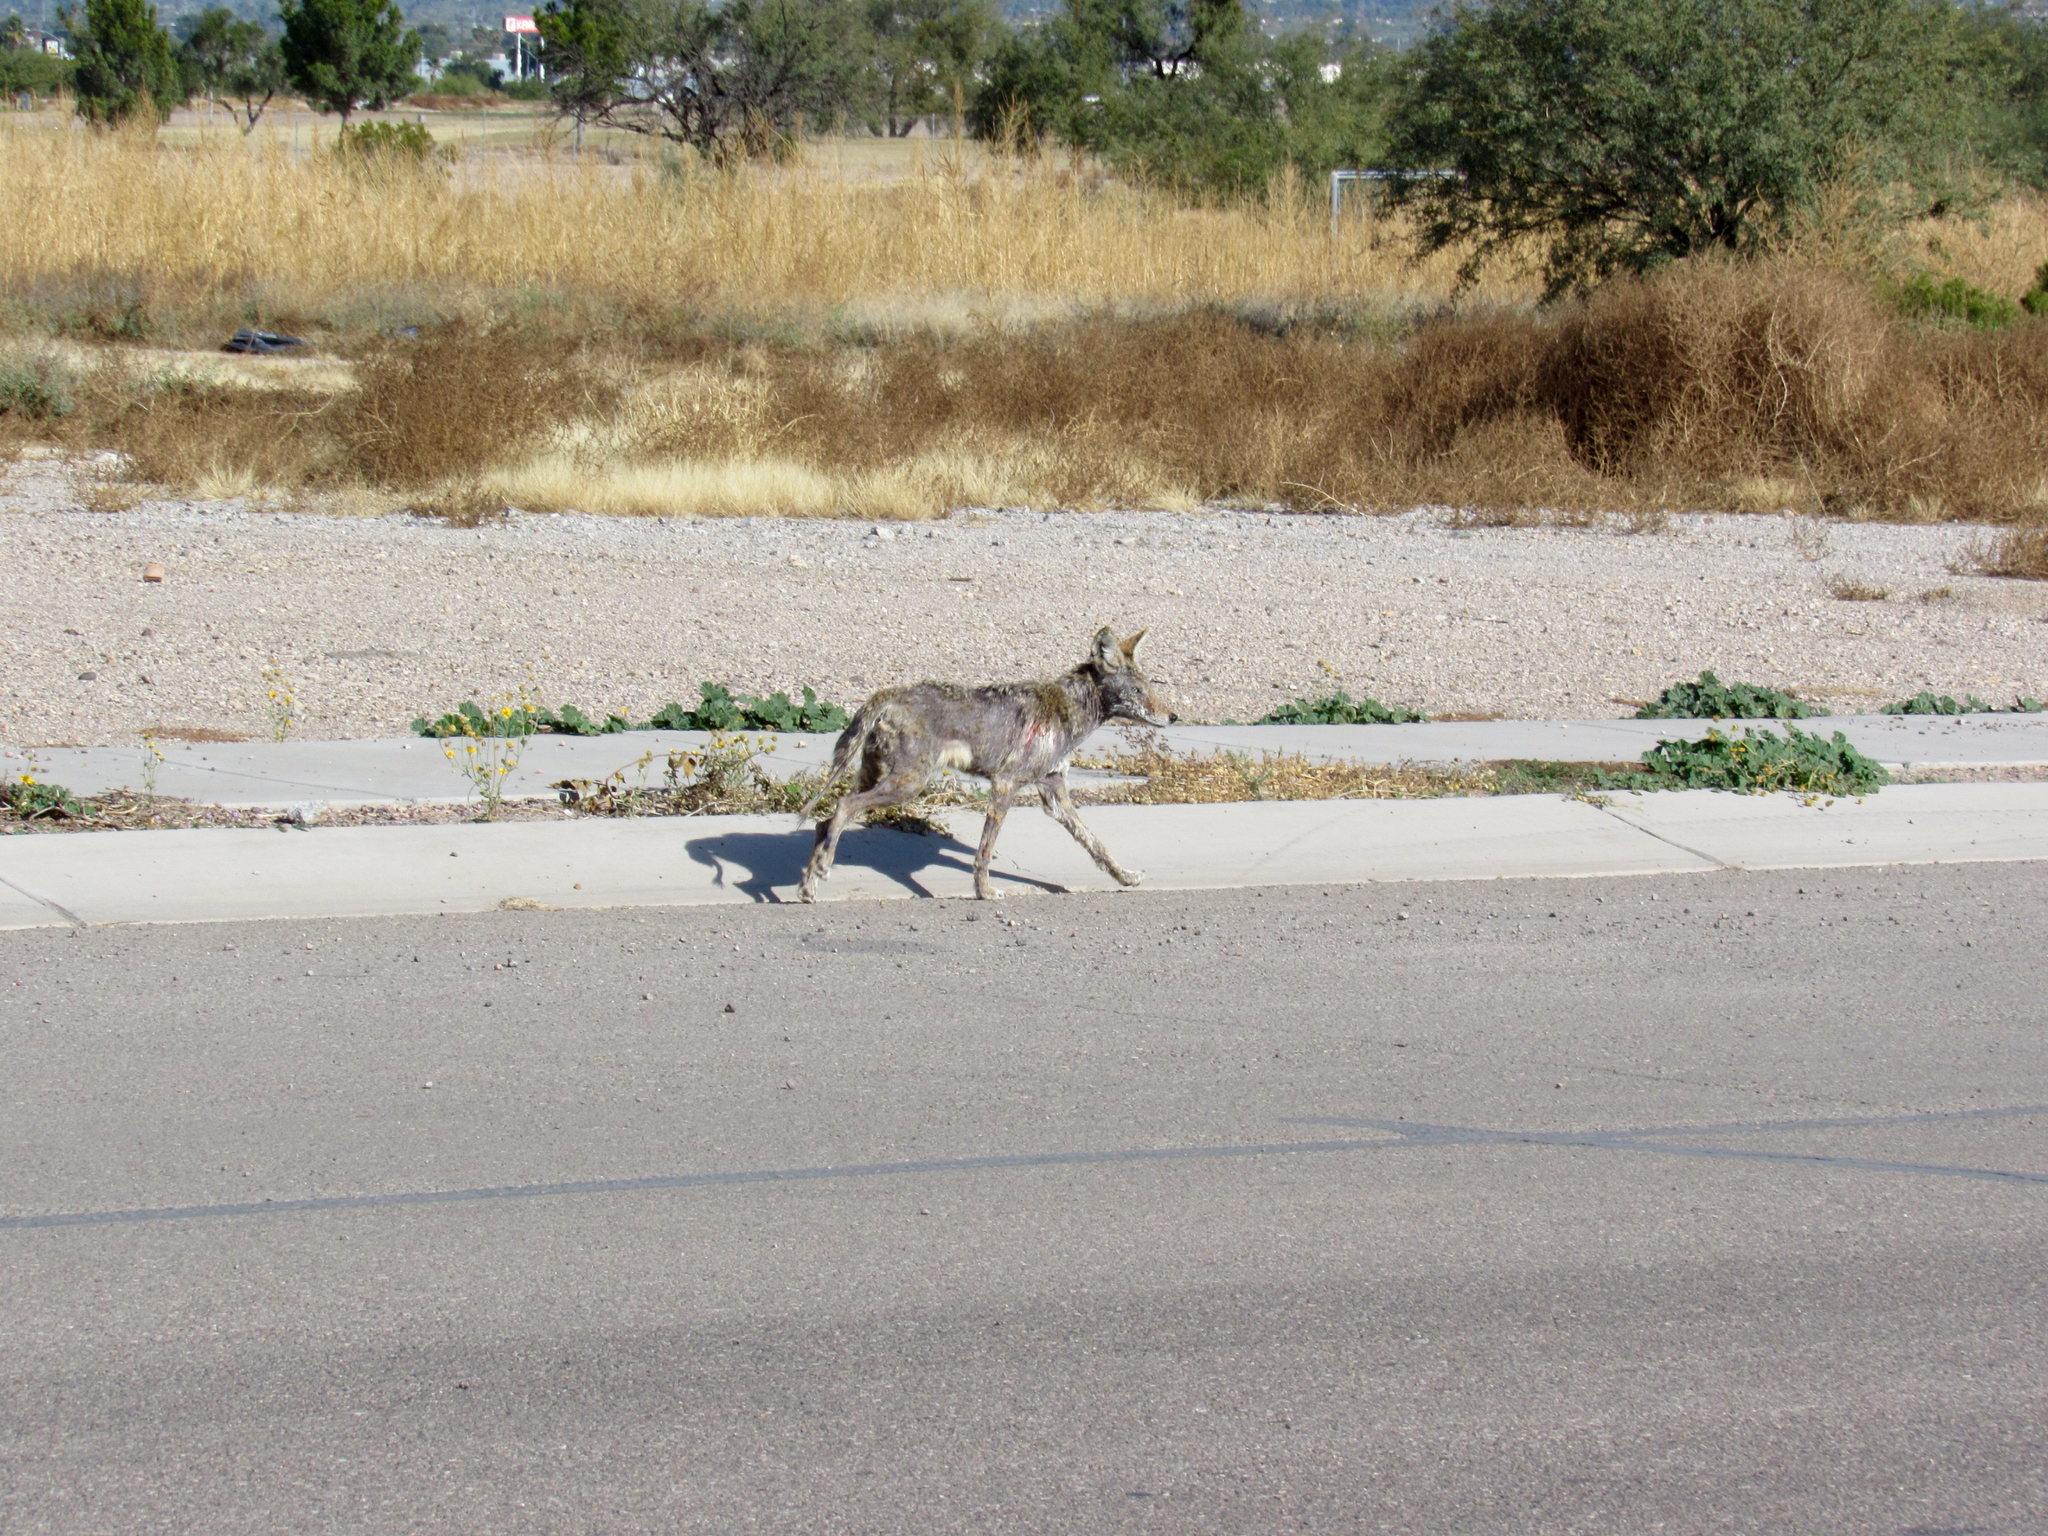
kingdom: Animalia
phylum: Chordata
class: Mammalia
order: Carnivora
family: Canidae
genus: Canis
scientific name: Canis latrans
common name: Coyote
